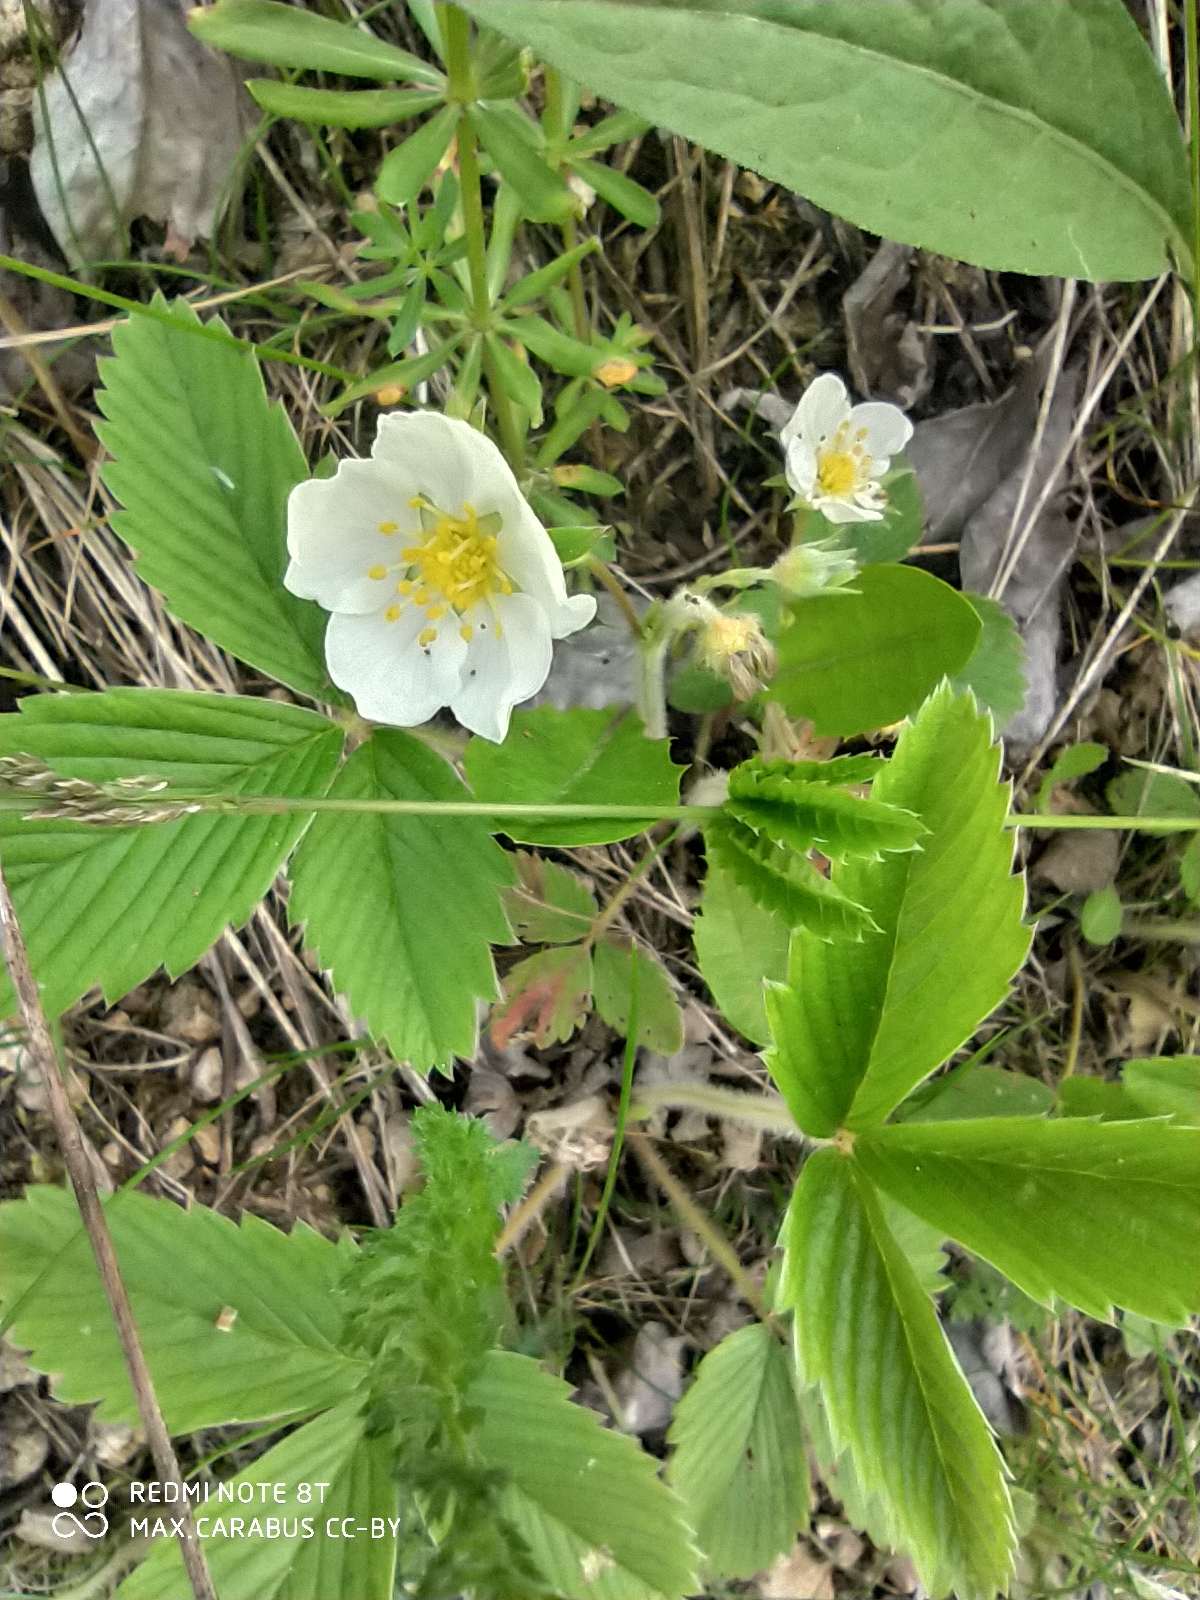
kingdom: Plantae
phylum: Tracheophyta
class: Magnoliopsida
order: Rosales
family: Rosaceae
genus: Fragaria
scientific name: Fragaria viridis
